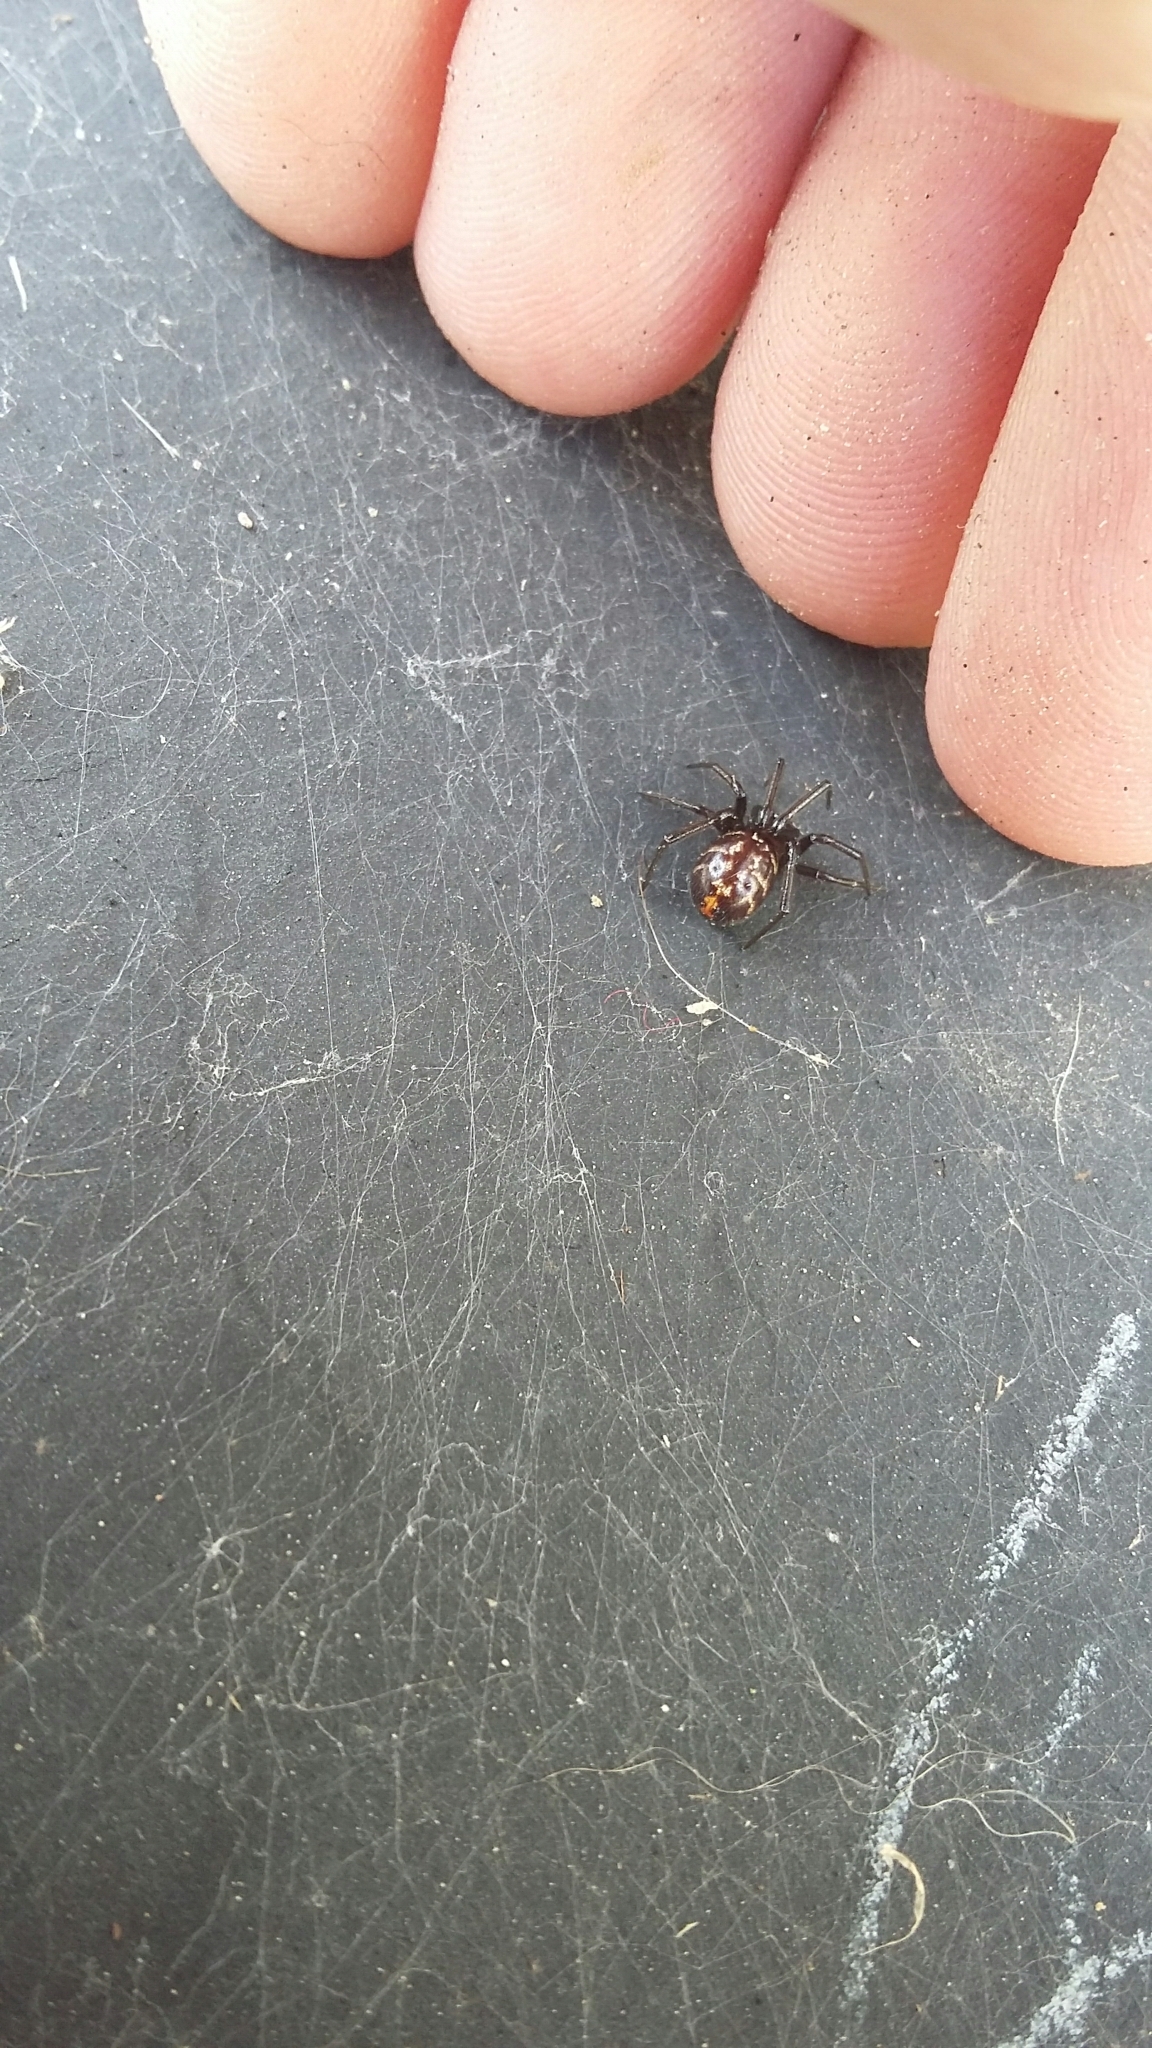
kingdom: Animalia
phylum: Arthropoda
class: Arachnida
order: Araneae
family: Theridiidae
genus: Steatoda
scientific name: Steatoda capensis
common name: Cobweb weaver
